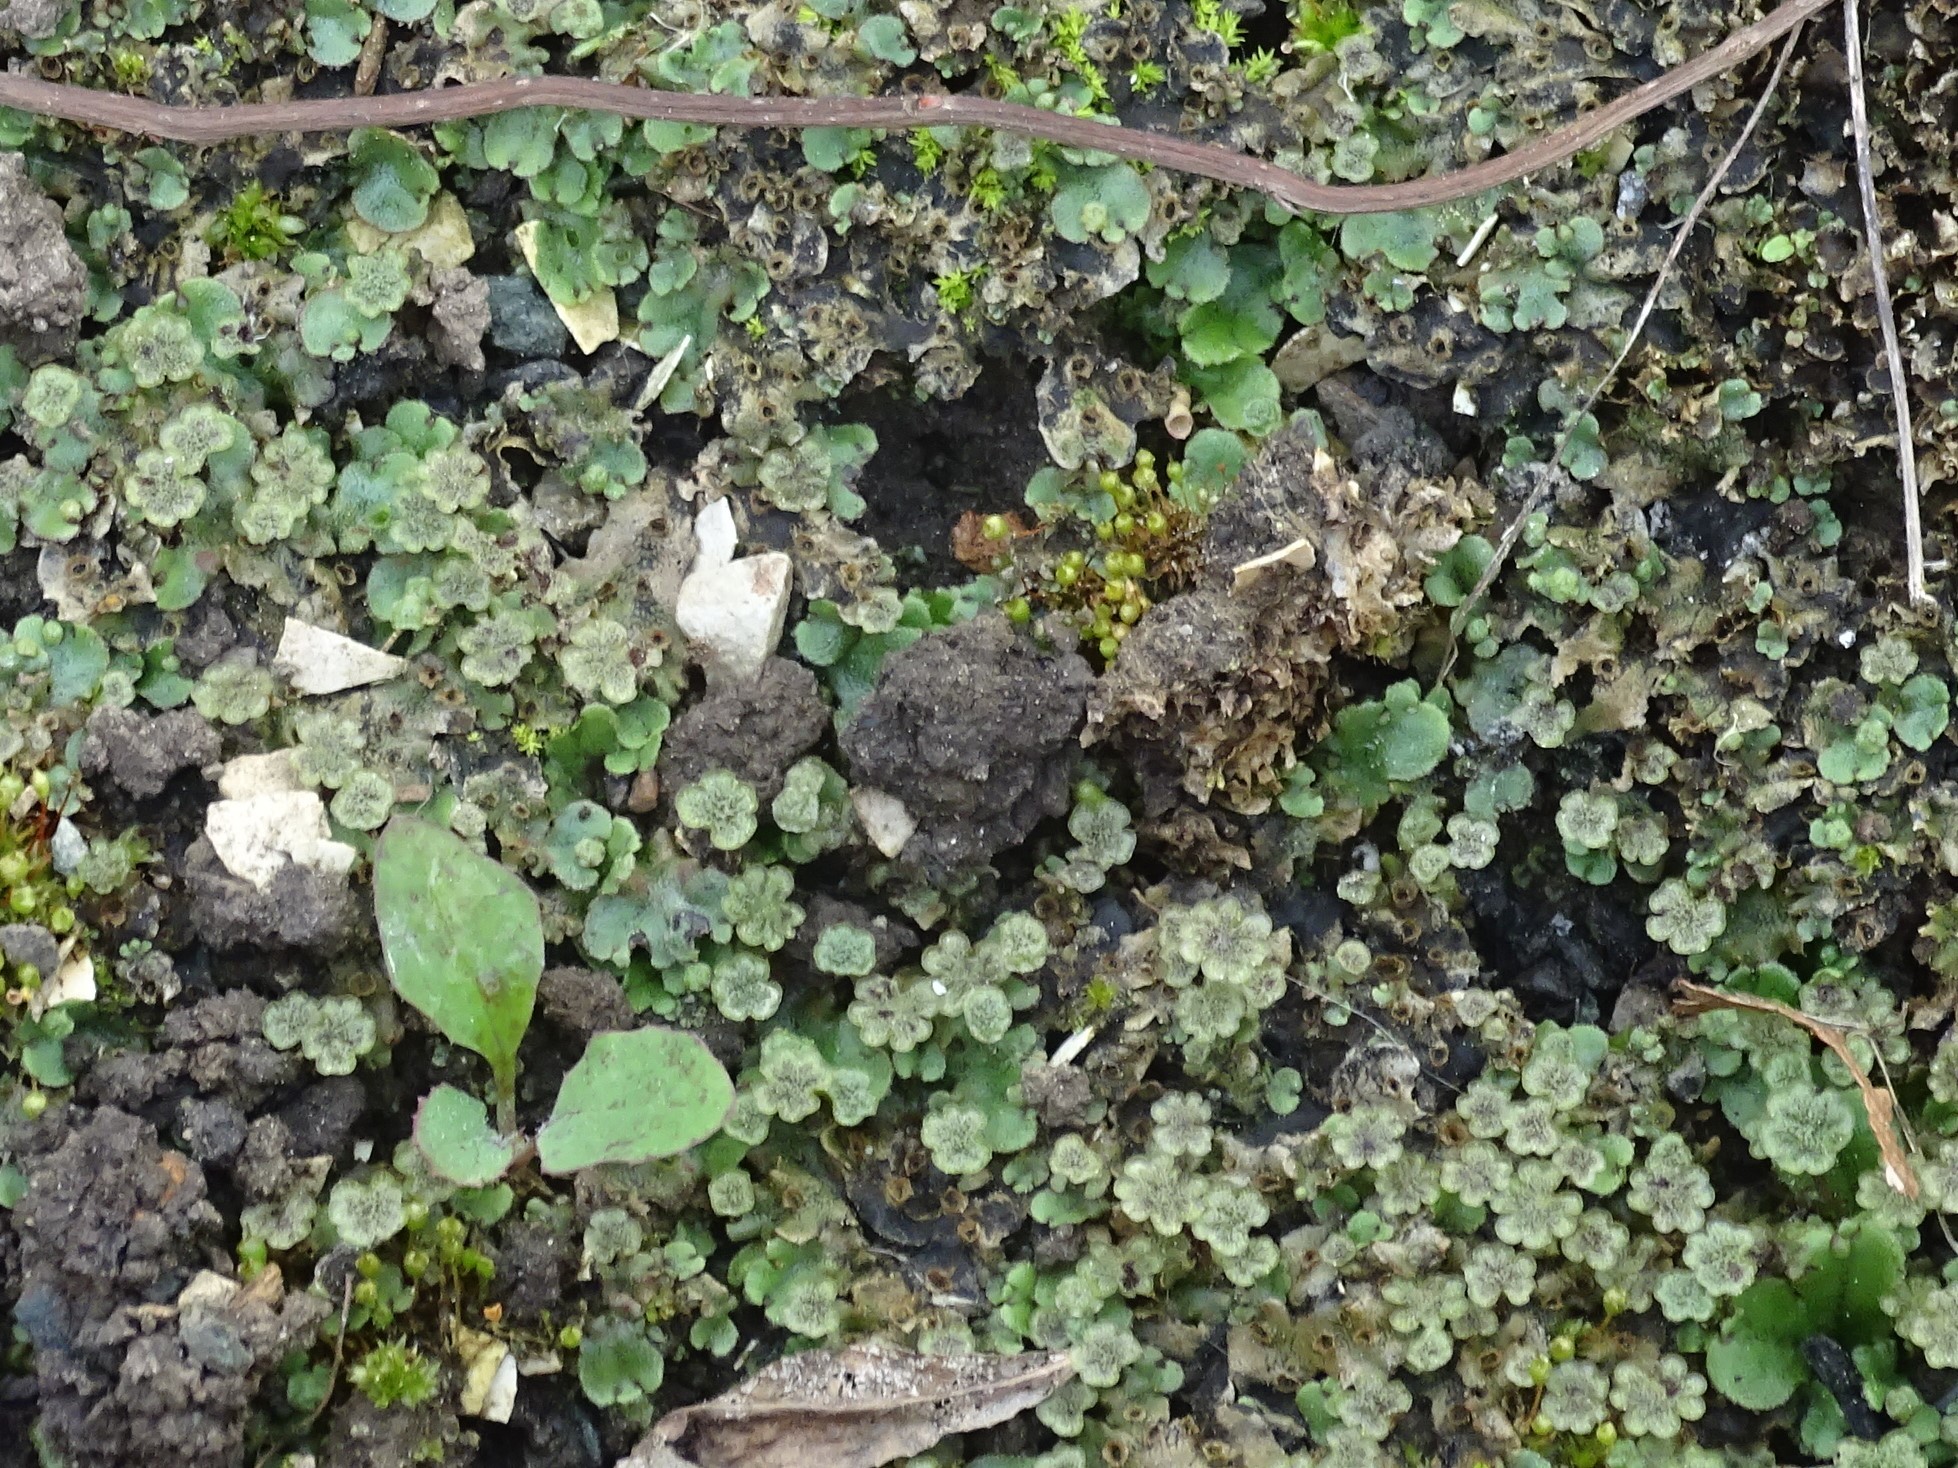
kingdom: Plantae
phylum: Marchantiophyta
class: Marchantiopsida
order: Marchantiales
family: Marchantiaceae
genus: Marchantia
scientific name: Marchantia polymorpha
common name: Common liverwort
